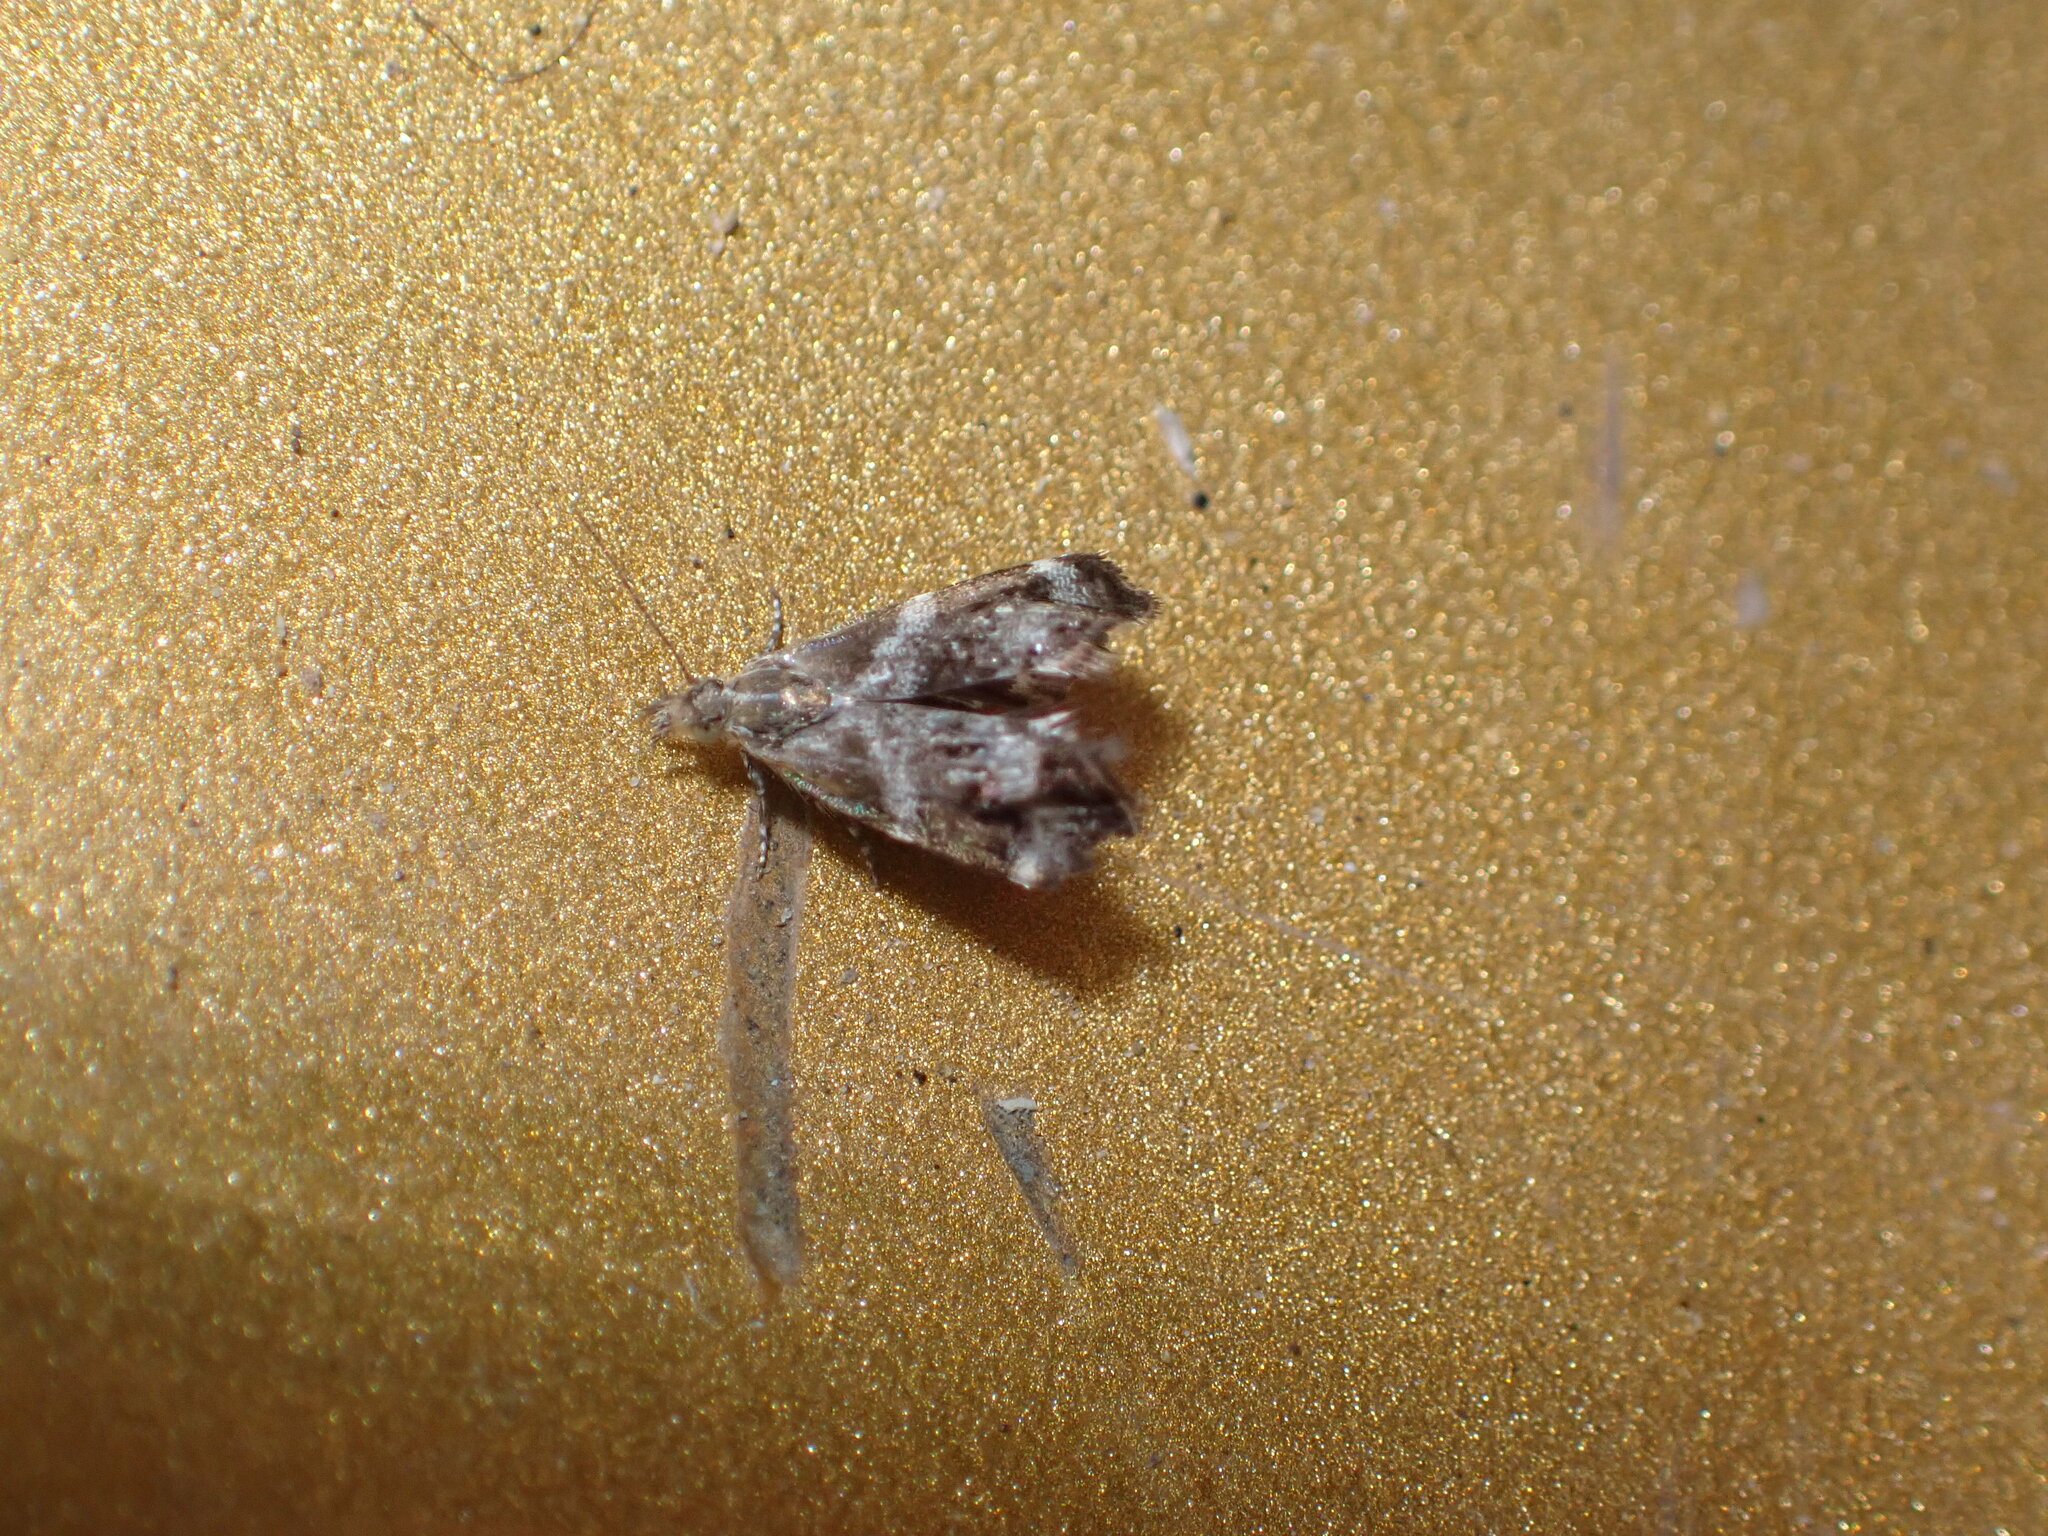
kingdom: Animalia
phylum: Arthropoda
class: Insecta
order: Lepidoptera
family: Choreutidae
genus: Tebenna
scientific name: Tebenna micalis
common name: Vagrant twitcher
